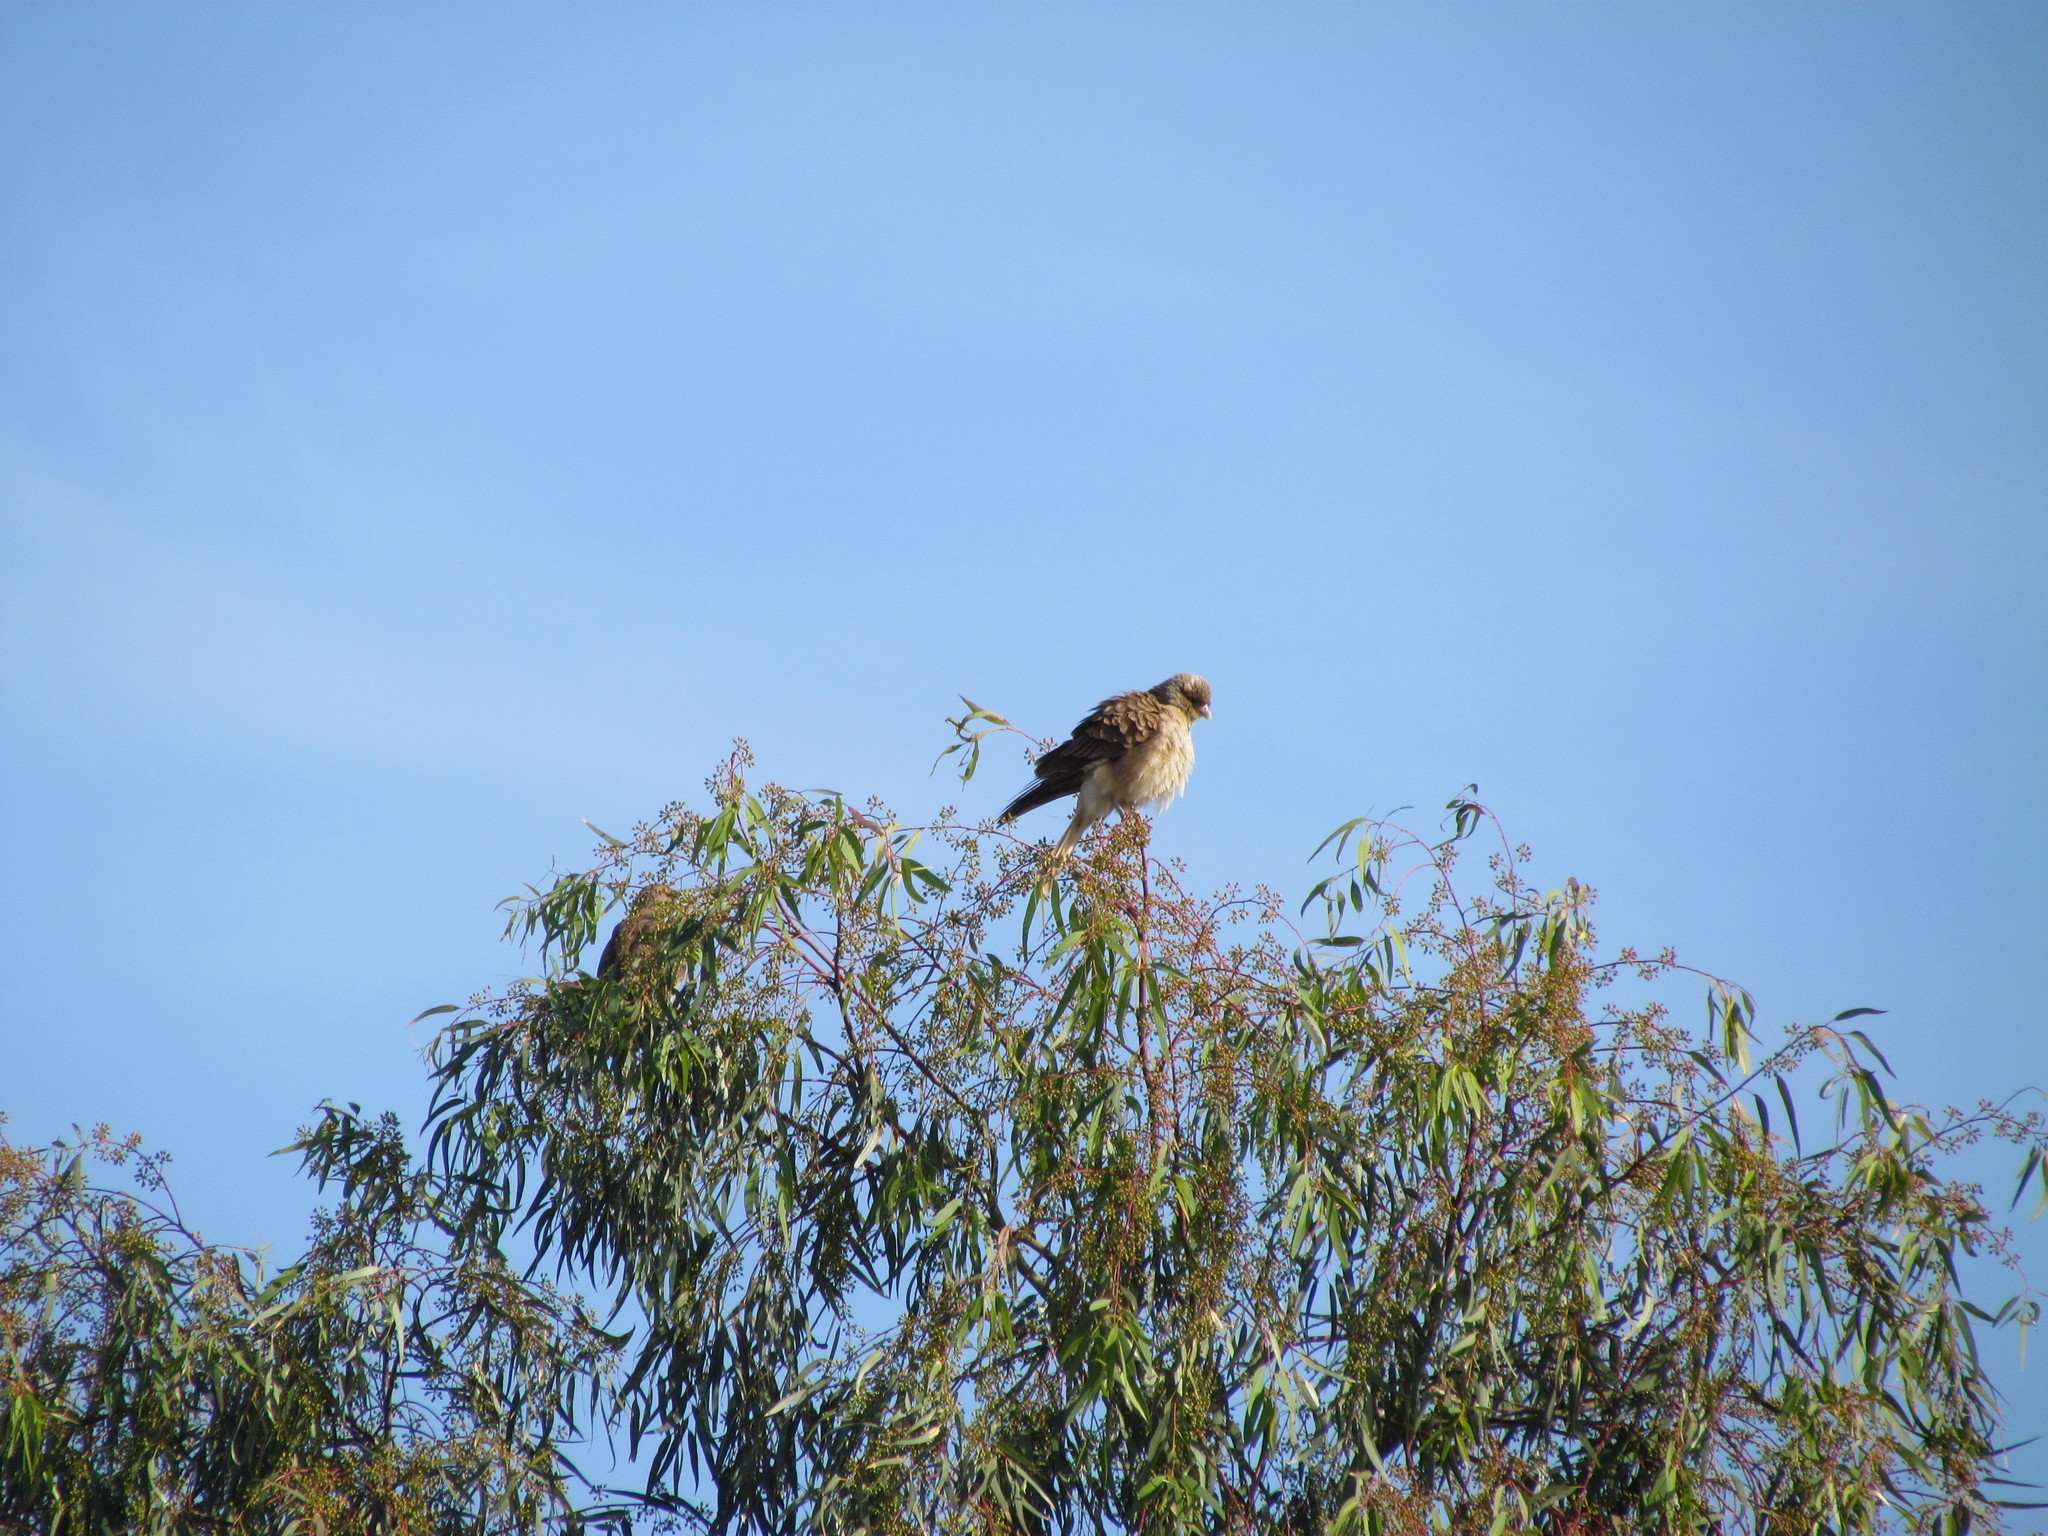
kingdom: Animalia
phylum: Chordata
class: Aves
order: Falconiformes
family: Falconidae
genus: Daptrius
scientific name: Daptrius
